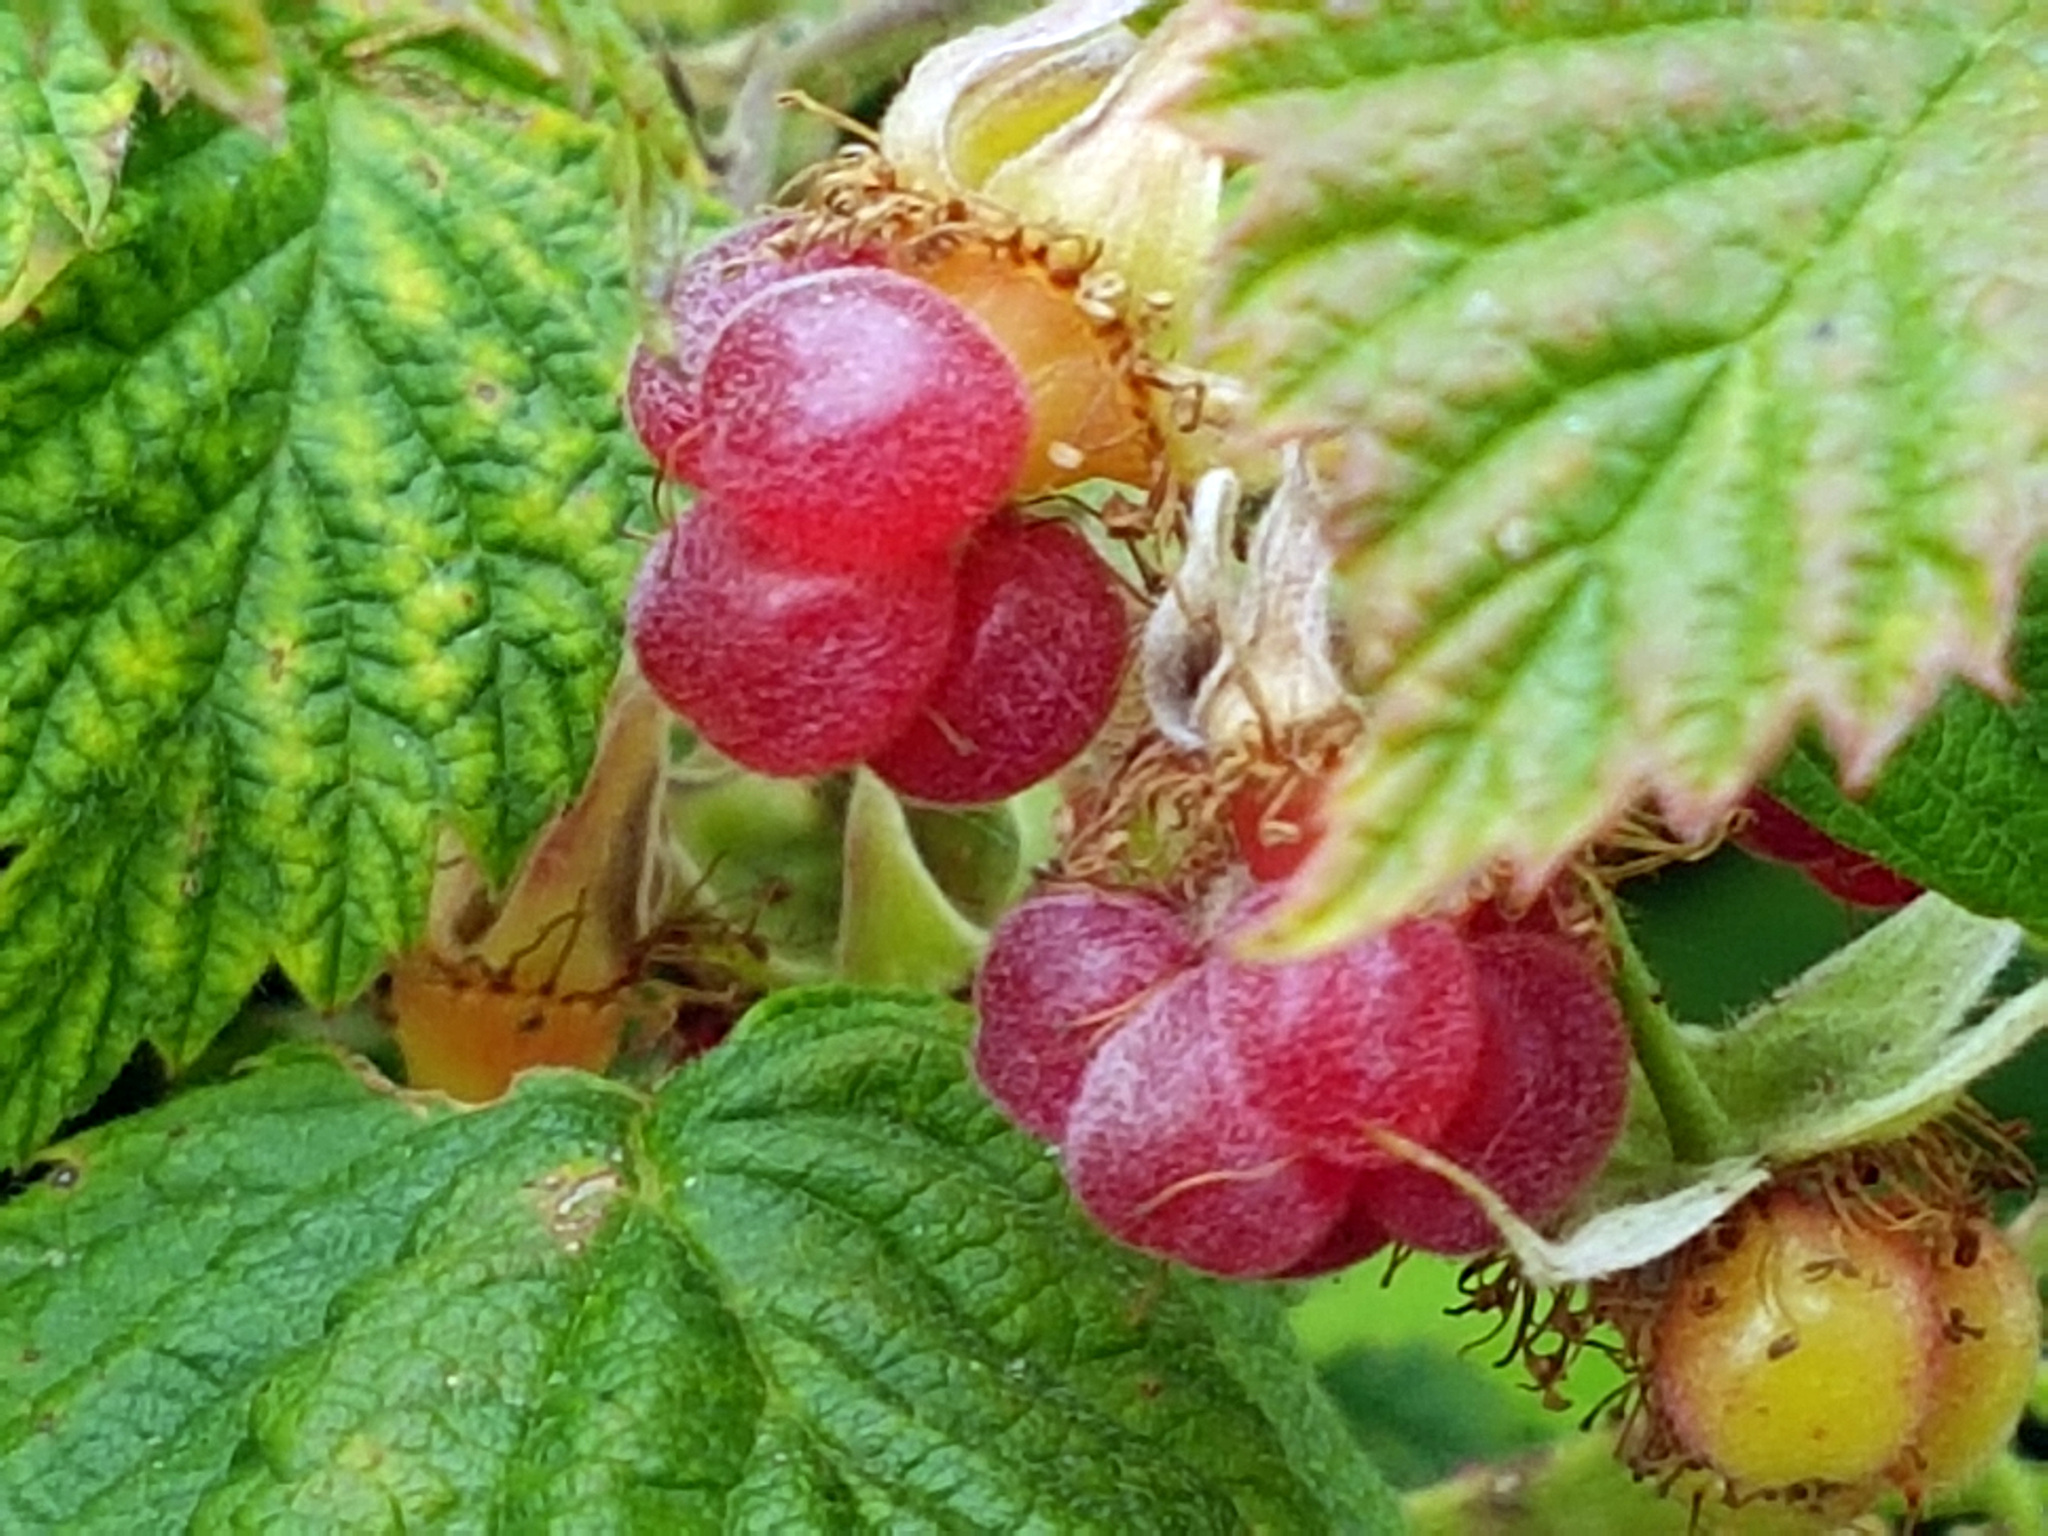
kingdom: Plantae
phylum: Tracheophyta
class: Magnoliopsida
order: Rosales
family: Rosaceae
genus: Rubus
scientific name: Rubus idaeus
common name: Raspberry
